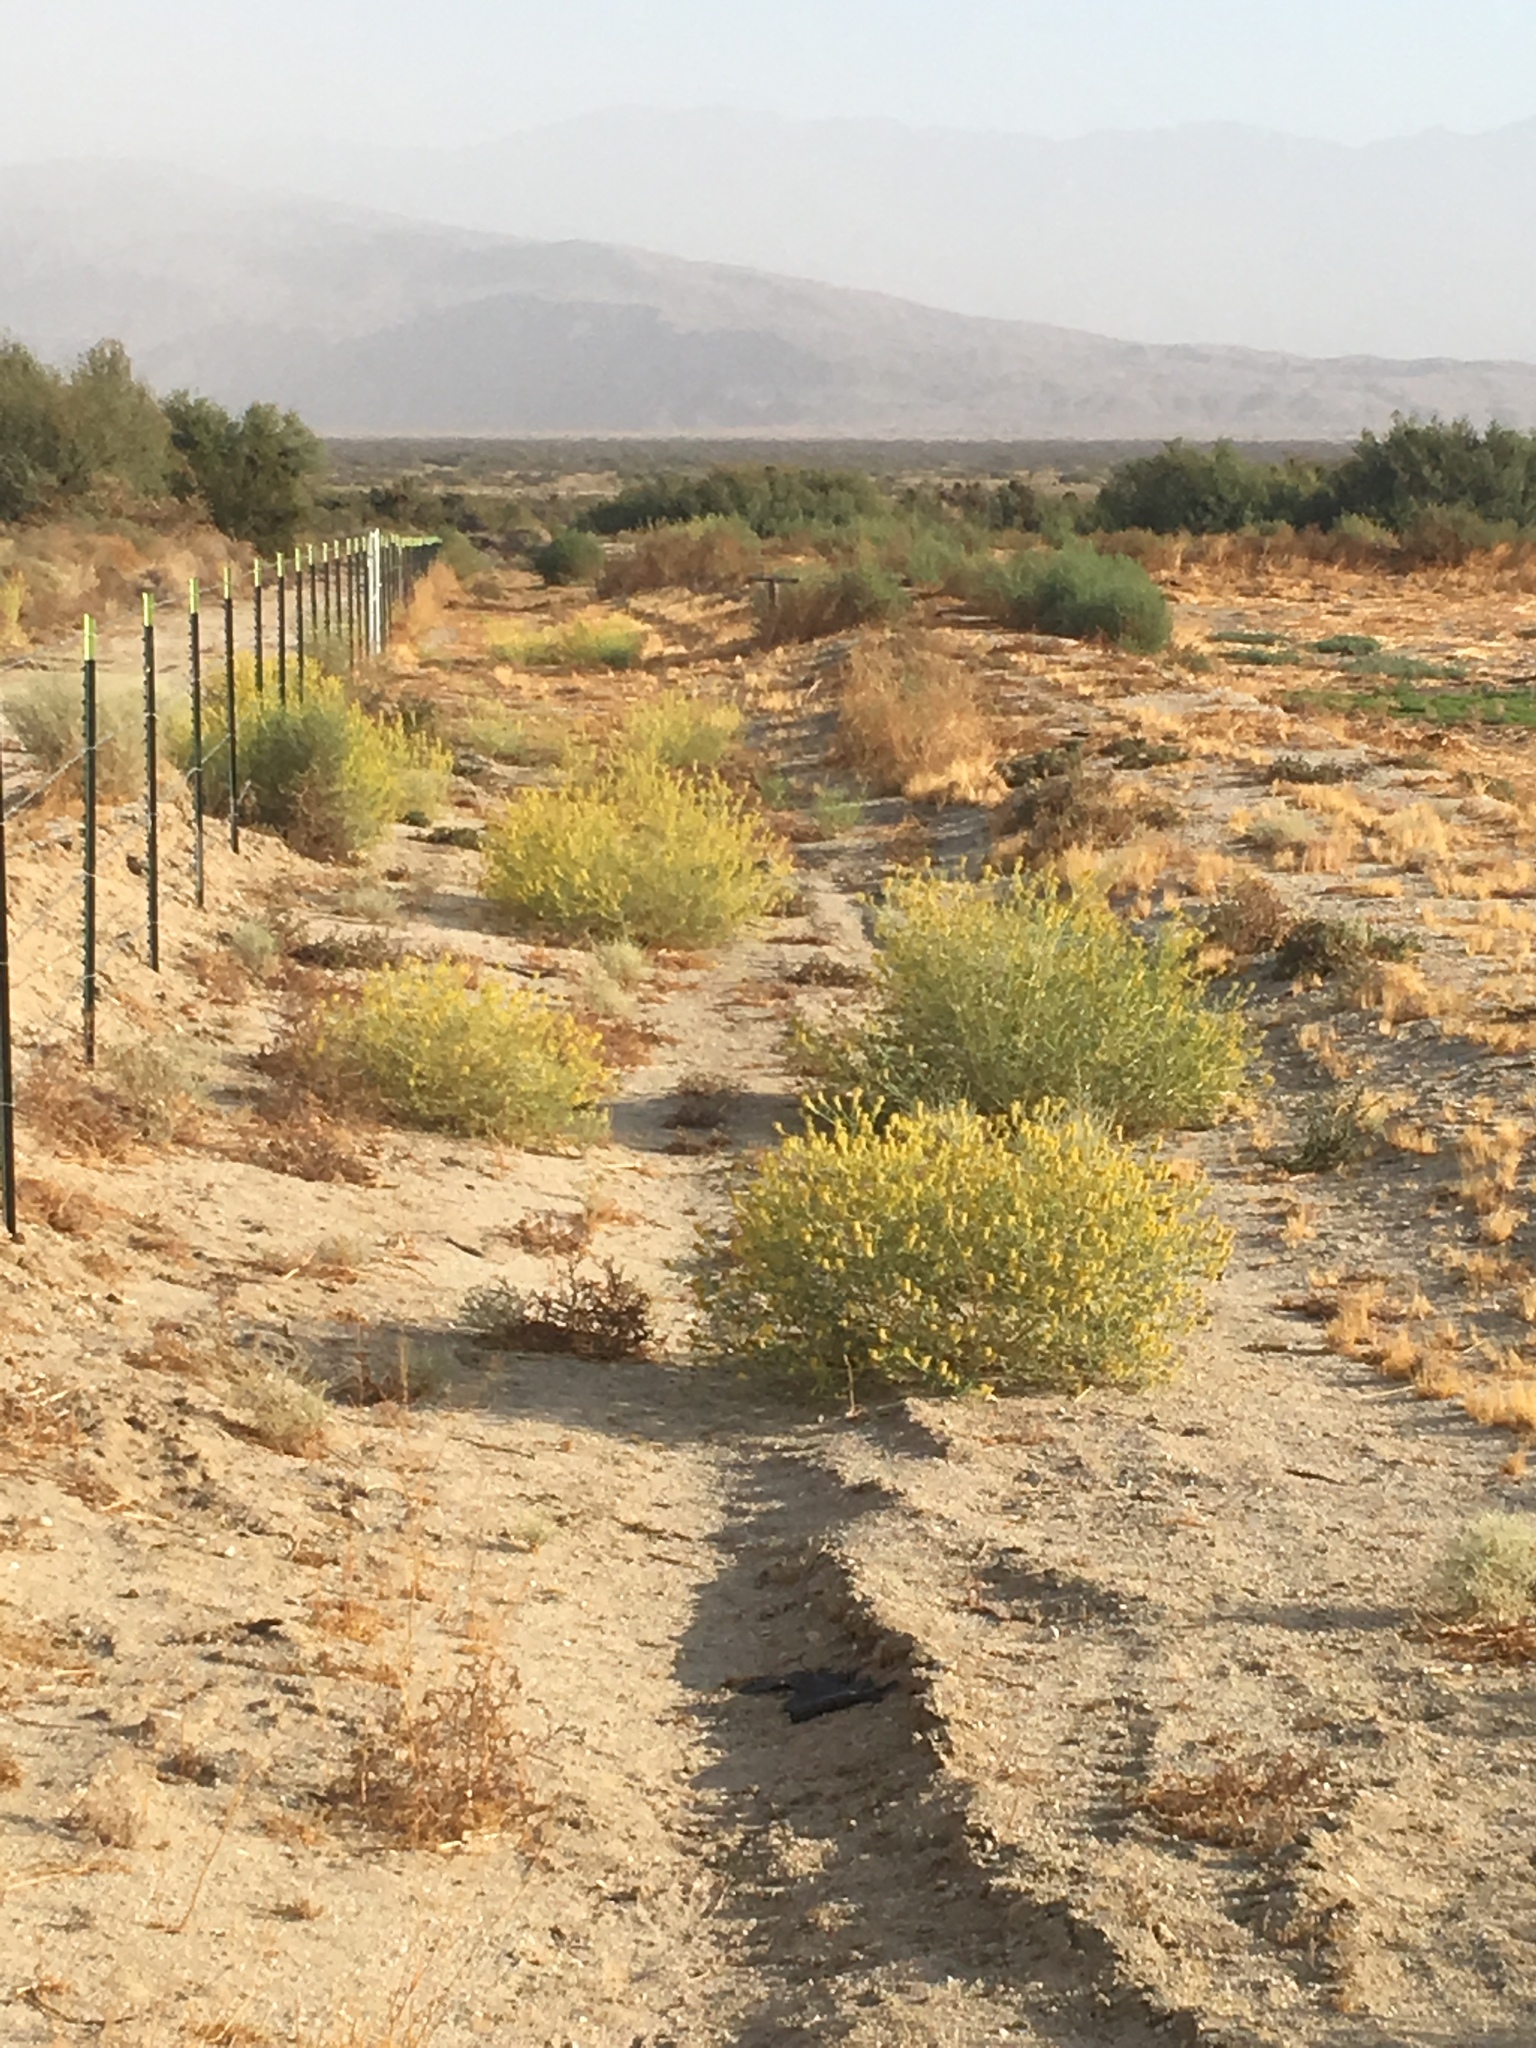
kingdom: Plantae
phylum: Tracheophyta
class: Magnoliopsida
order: Brassicales
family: Cleomaceae
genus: Cleomella
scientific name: Cleomella palmeri
